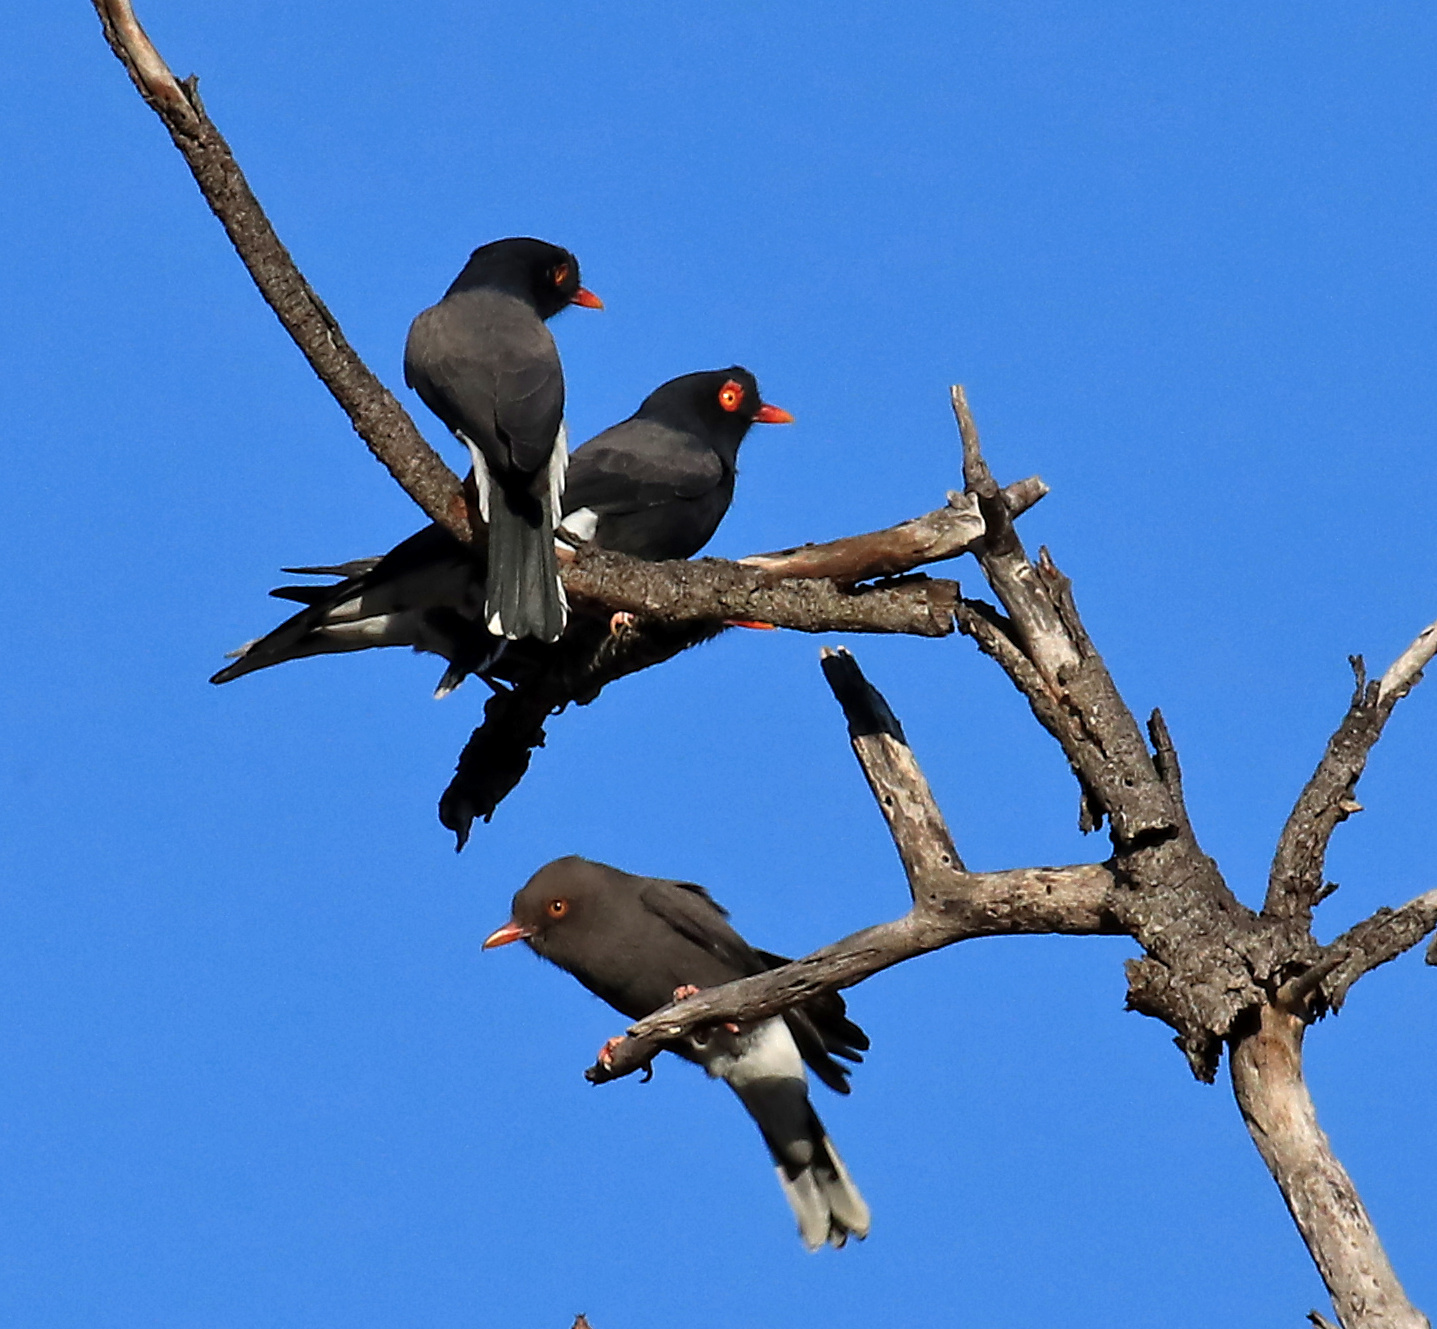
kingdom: Animalia
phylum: Chordata
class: Aves
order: Passeriformes
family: Prionopidae
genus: Prionops
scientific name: Prionops retzii
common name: Retz's helmetshrike
